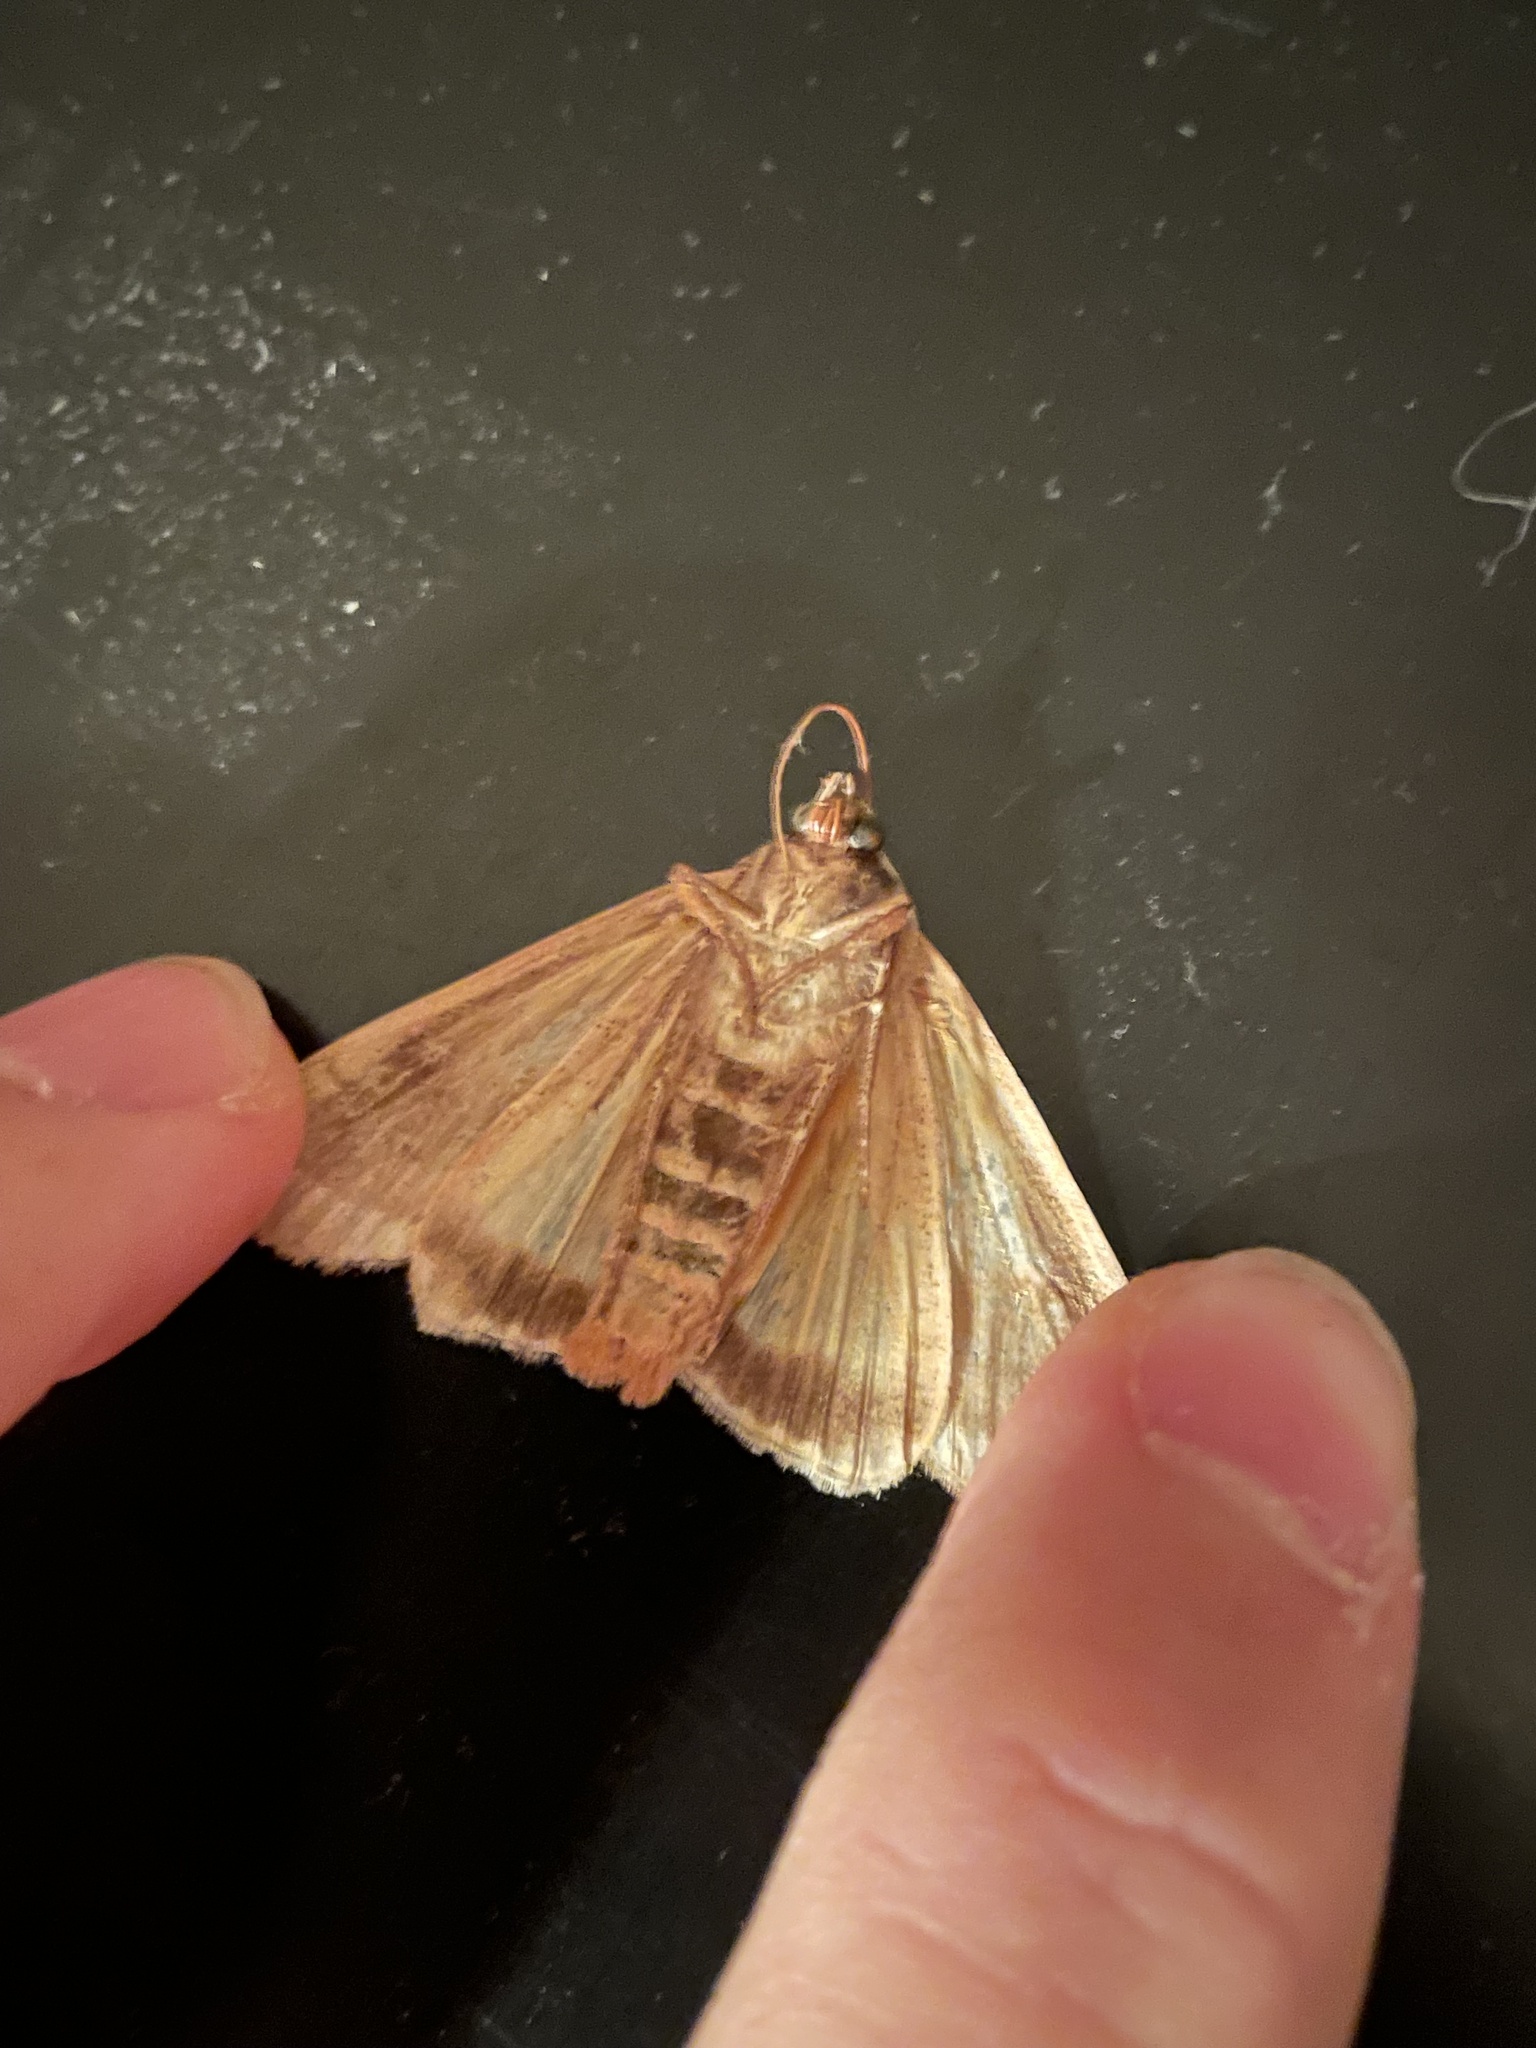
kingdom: Animalia
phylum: Arthropoda
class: Insecta
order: Lepidoptera
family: Noctuidae
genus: Noctua
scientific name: Noctua pronuba
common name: Large yellow underwing
